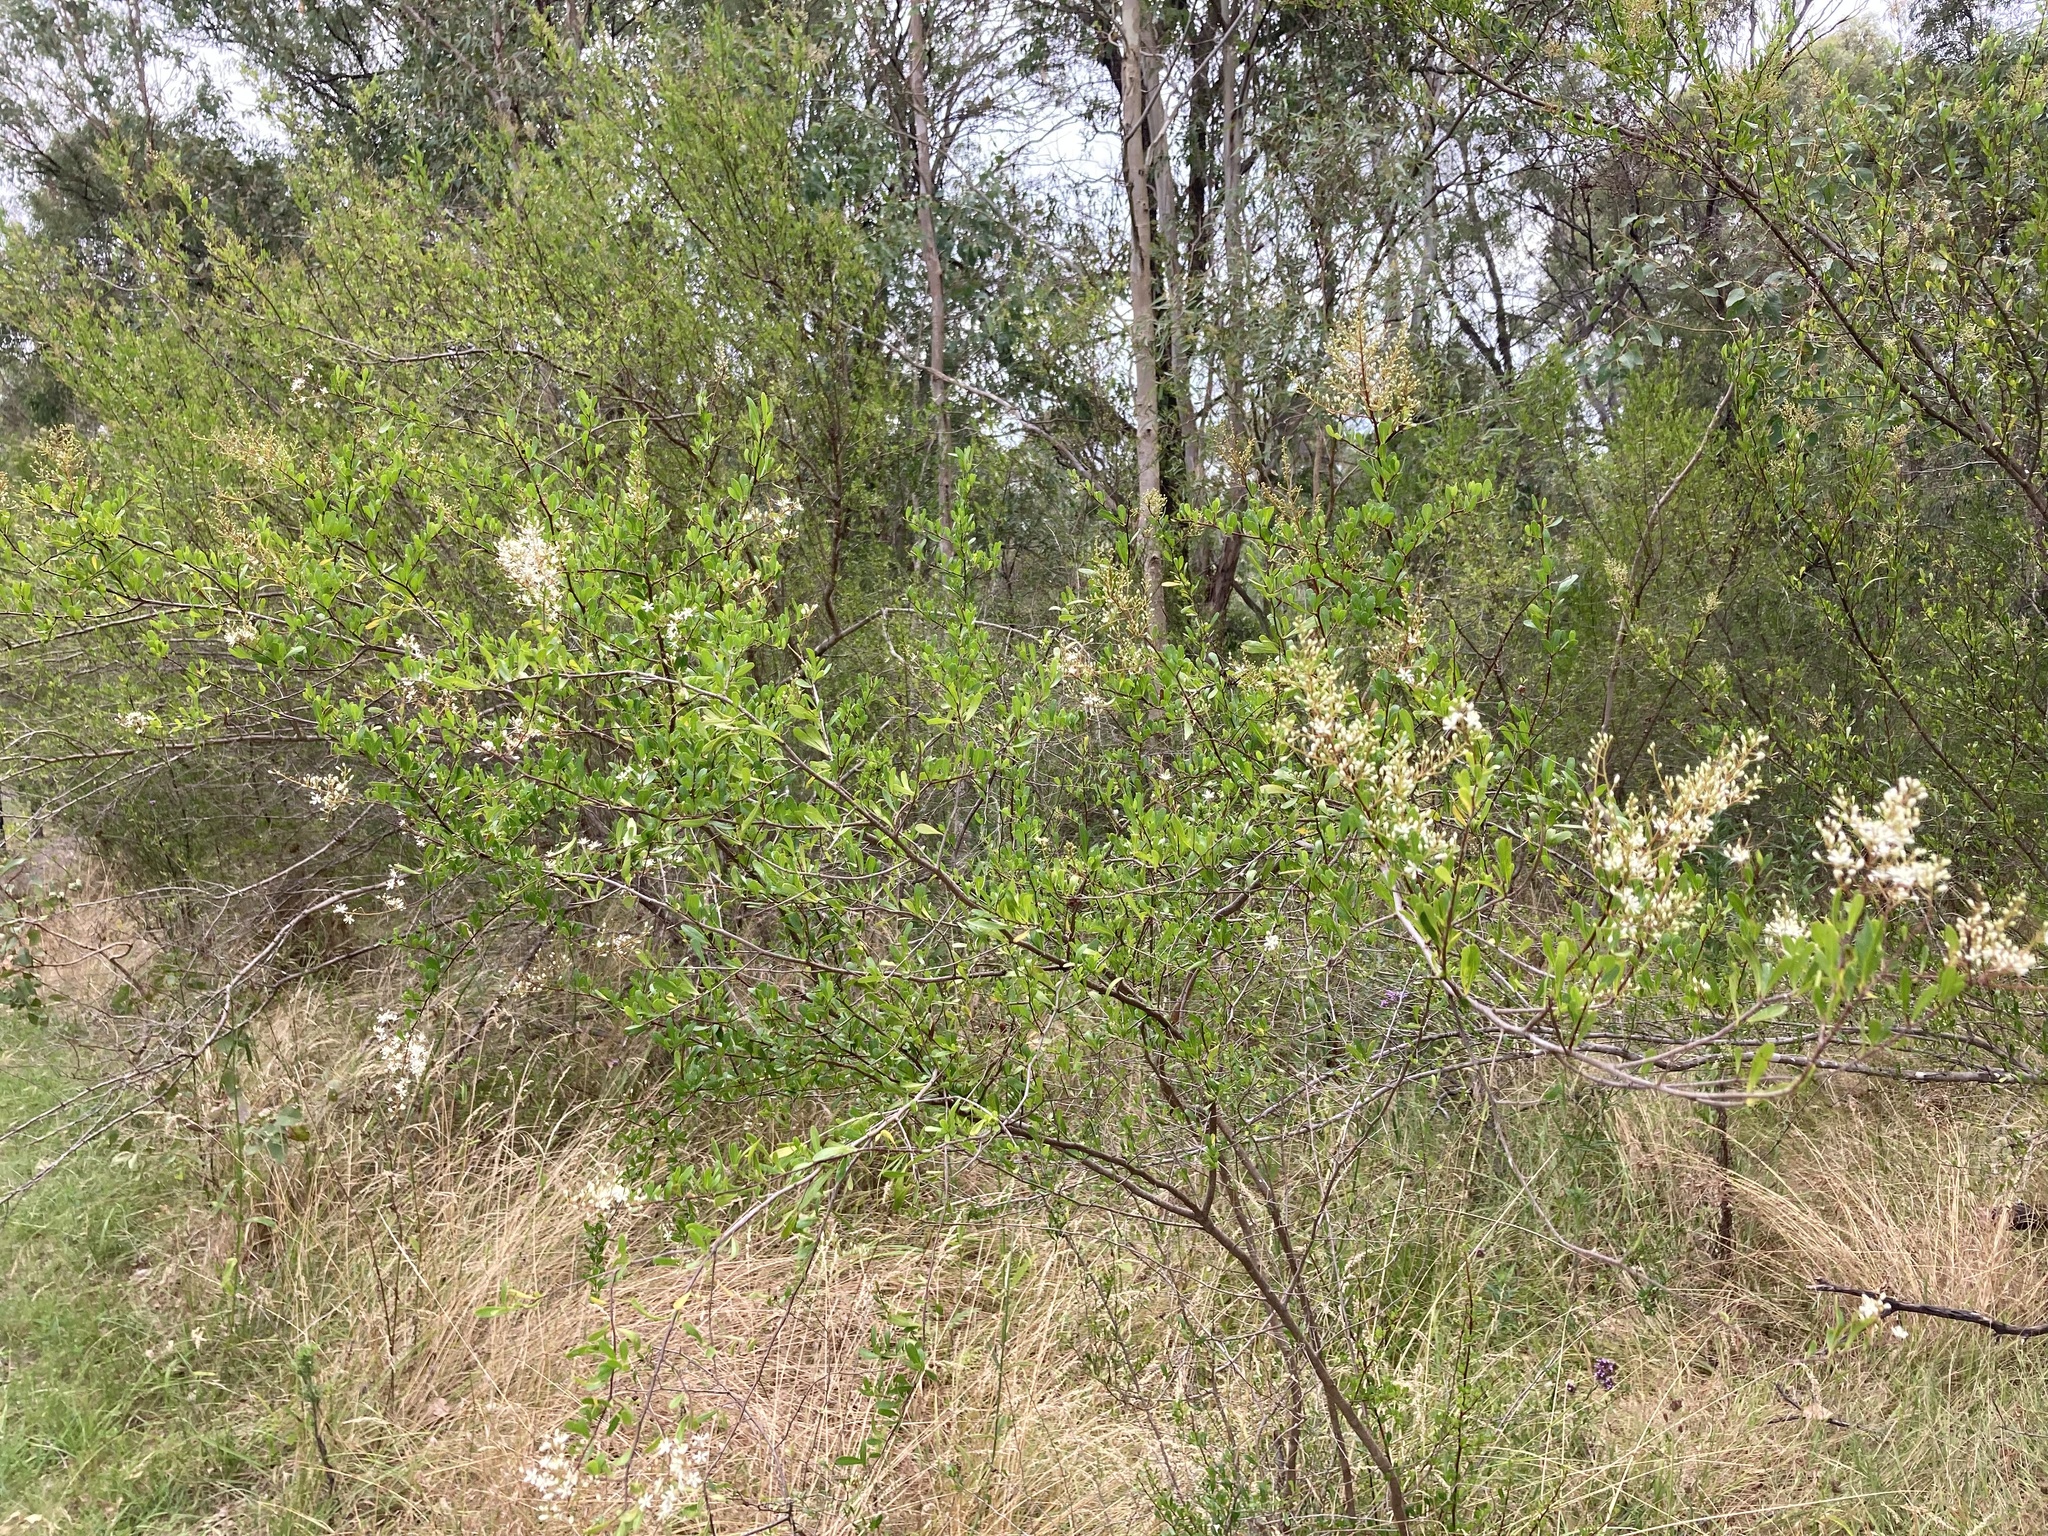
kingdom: Plantae
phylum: Tracheophyta
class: Magnoliopsida
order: Apiales
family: Pittosporaceae
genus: Bursaria
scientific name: Bursaria spinosa
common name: Australian blackthorn
